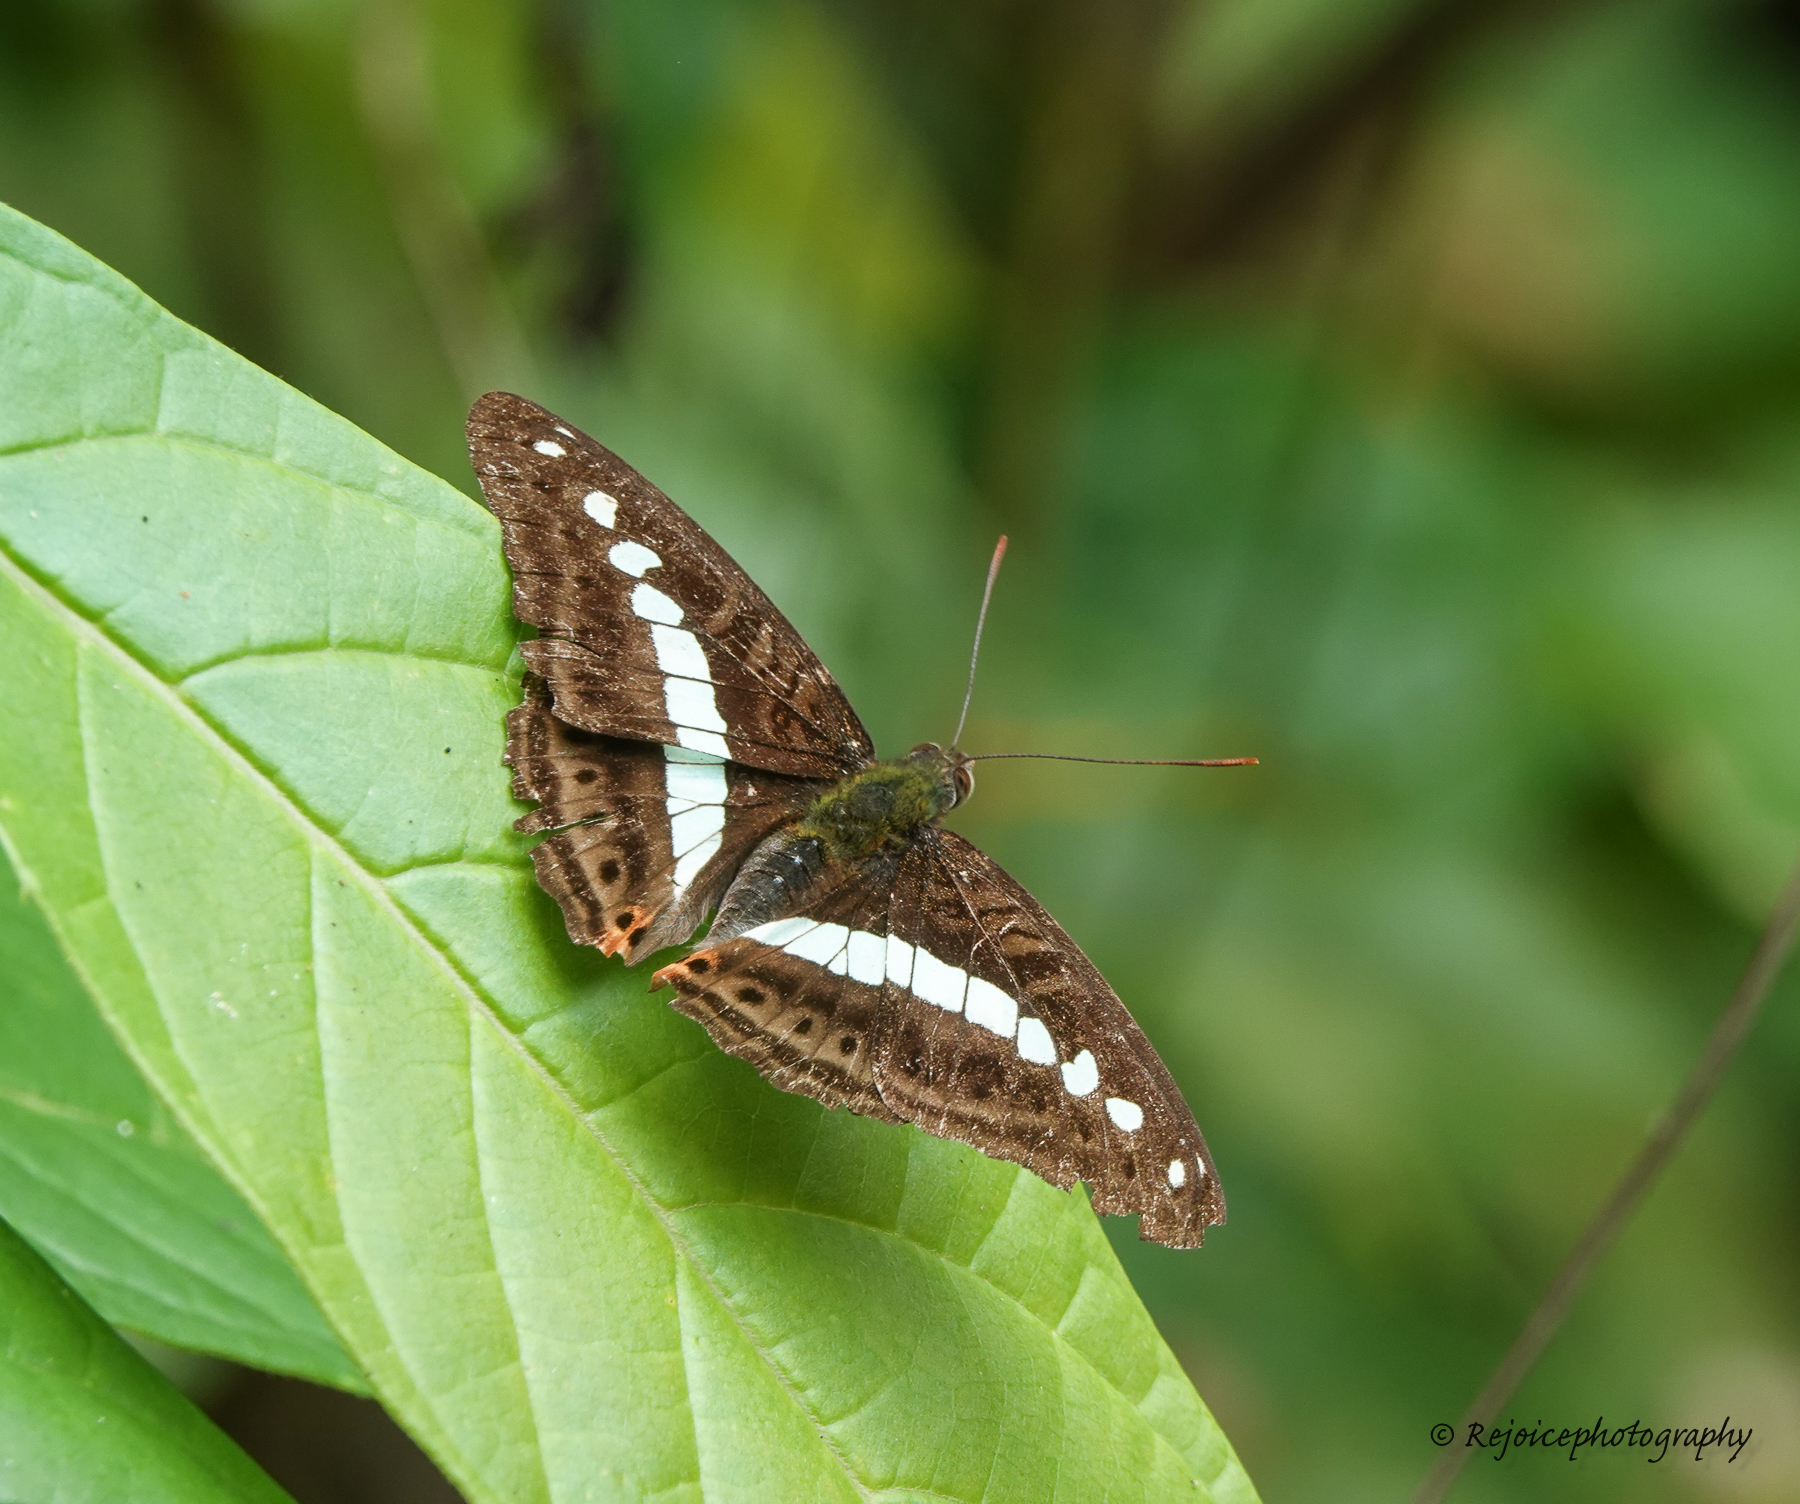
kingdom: Animalia
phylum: Arthropoda
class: Insecta
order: Lepidoptera
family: Nymphalidae
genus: Limenitis
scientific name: Limenitis Sumalia daraxa
